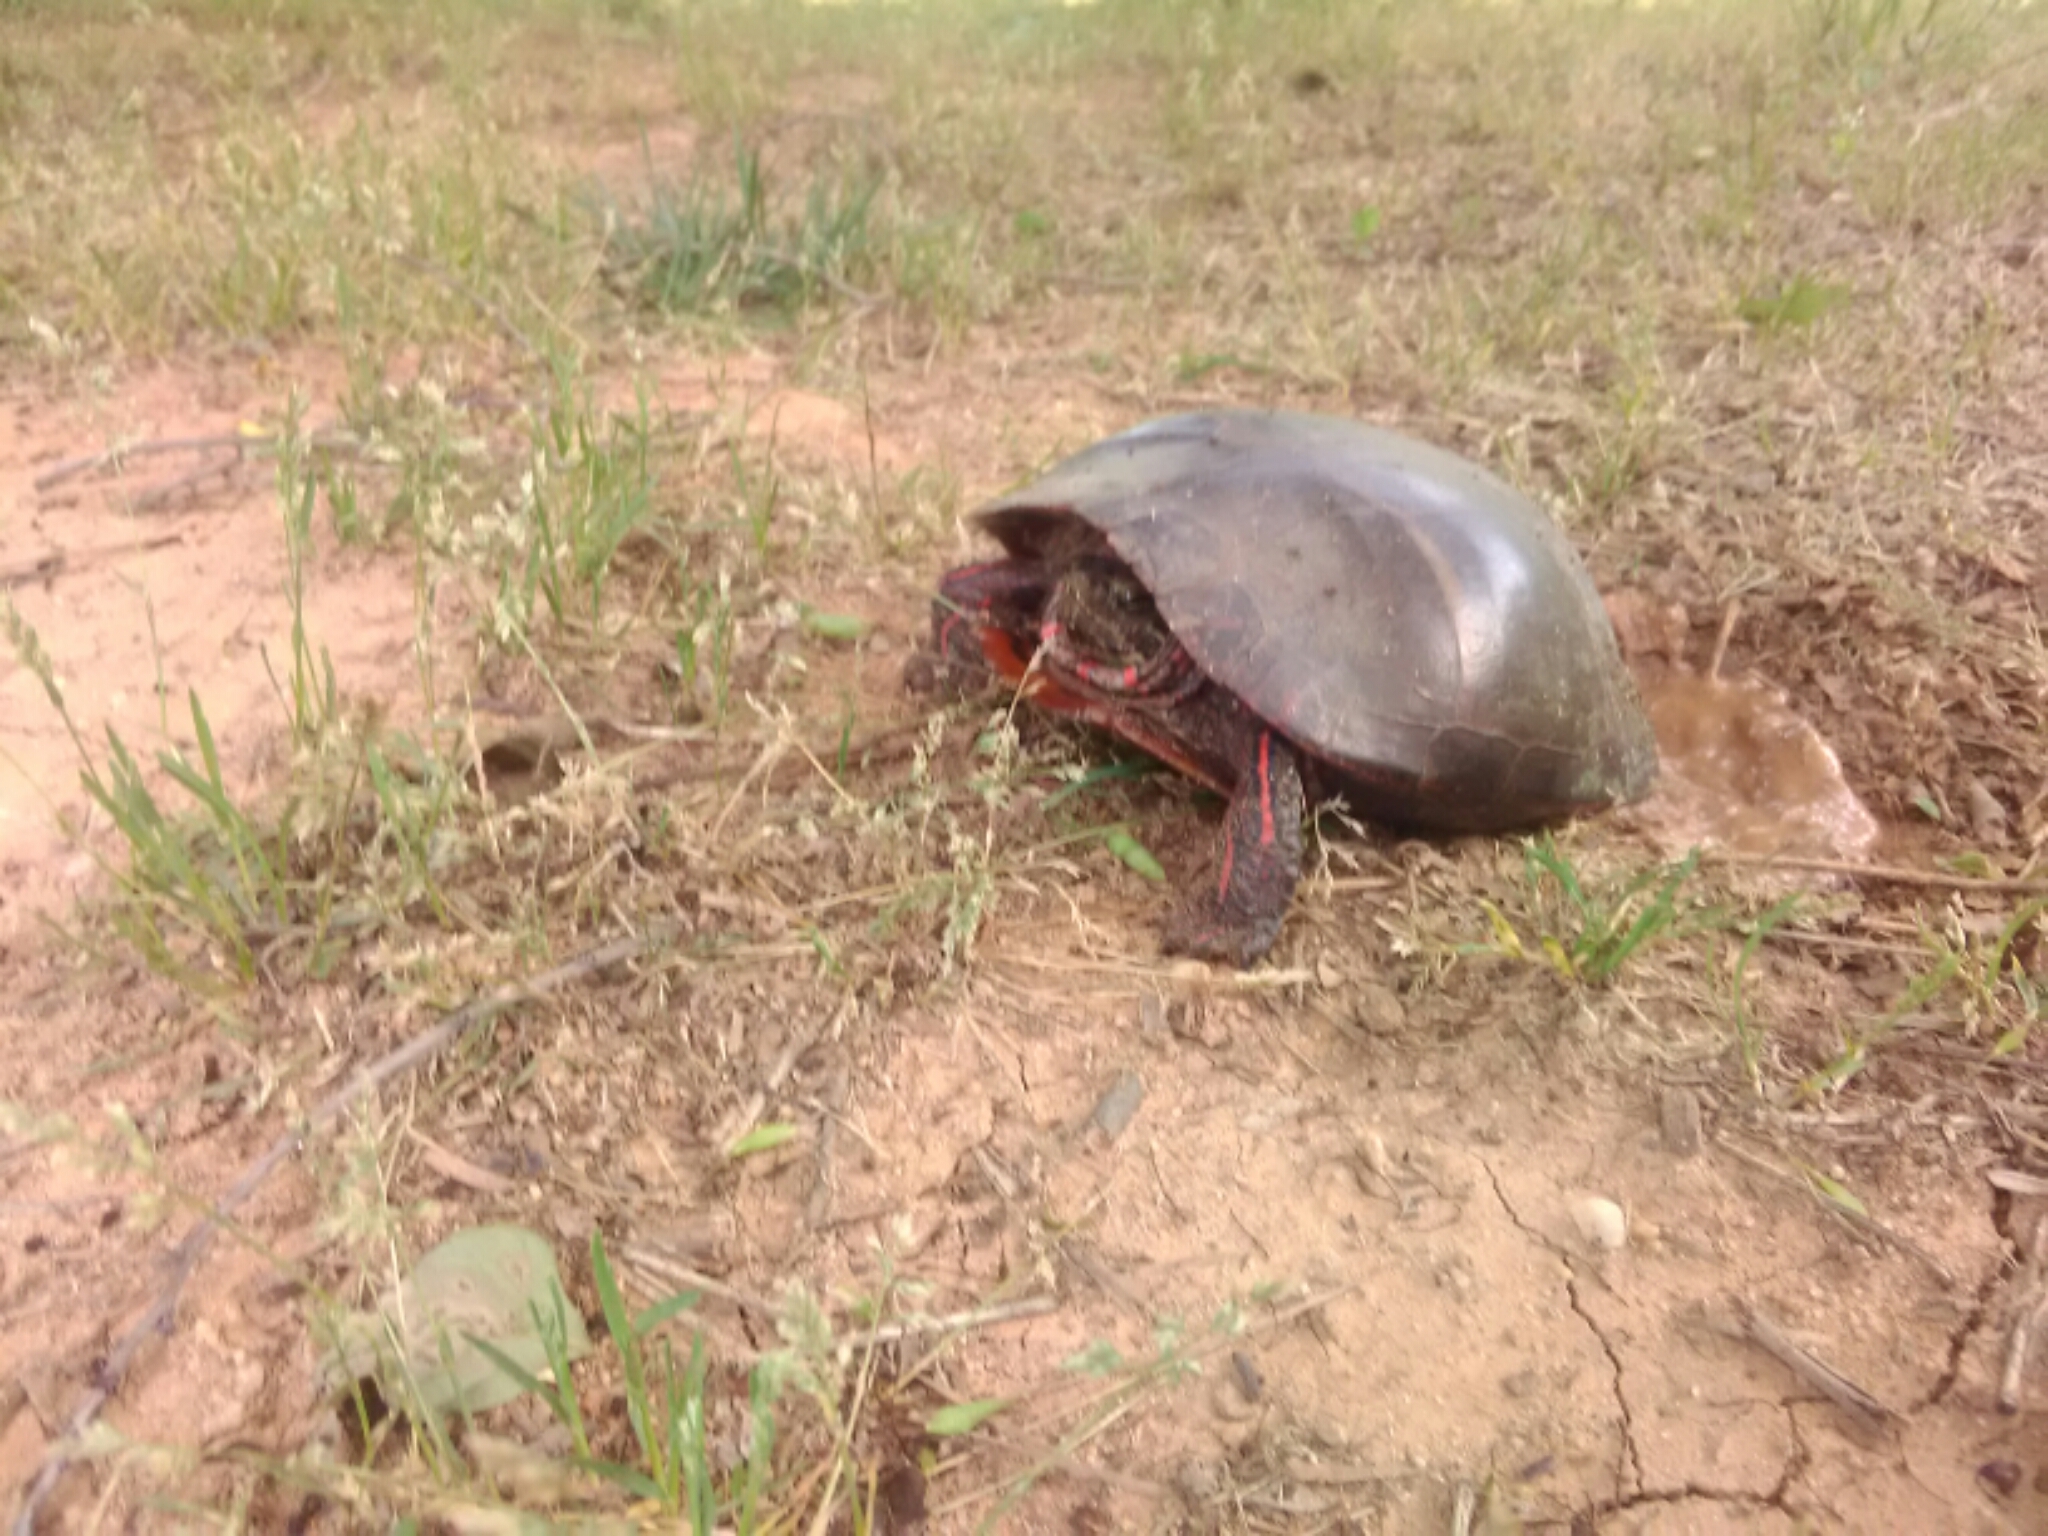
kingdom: Animalia
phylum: Chordata
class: Testudines
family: Emydidae
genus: Chrysemys
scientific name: Chrysemys picta
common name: Painted turtle
